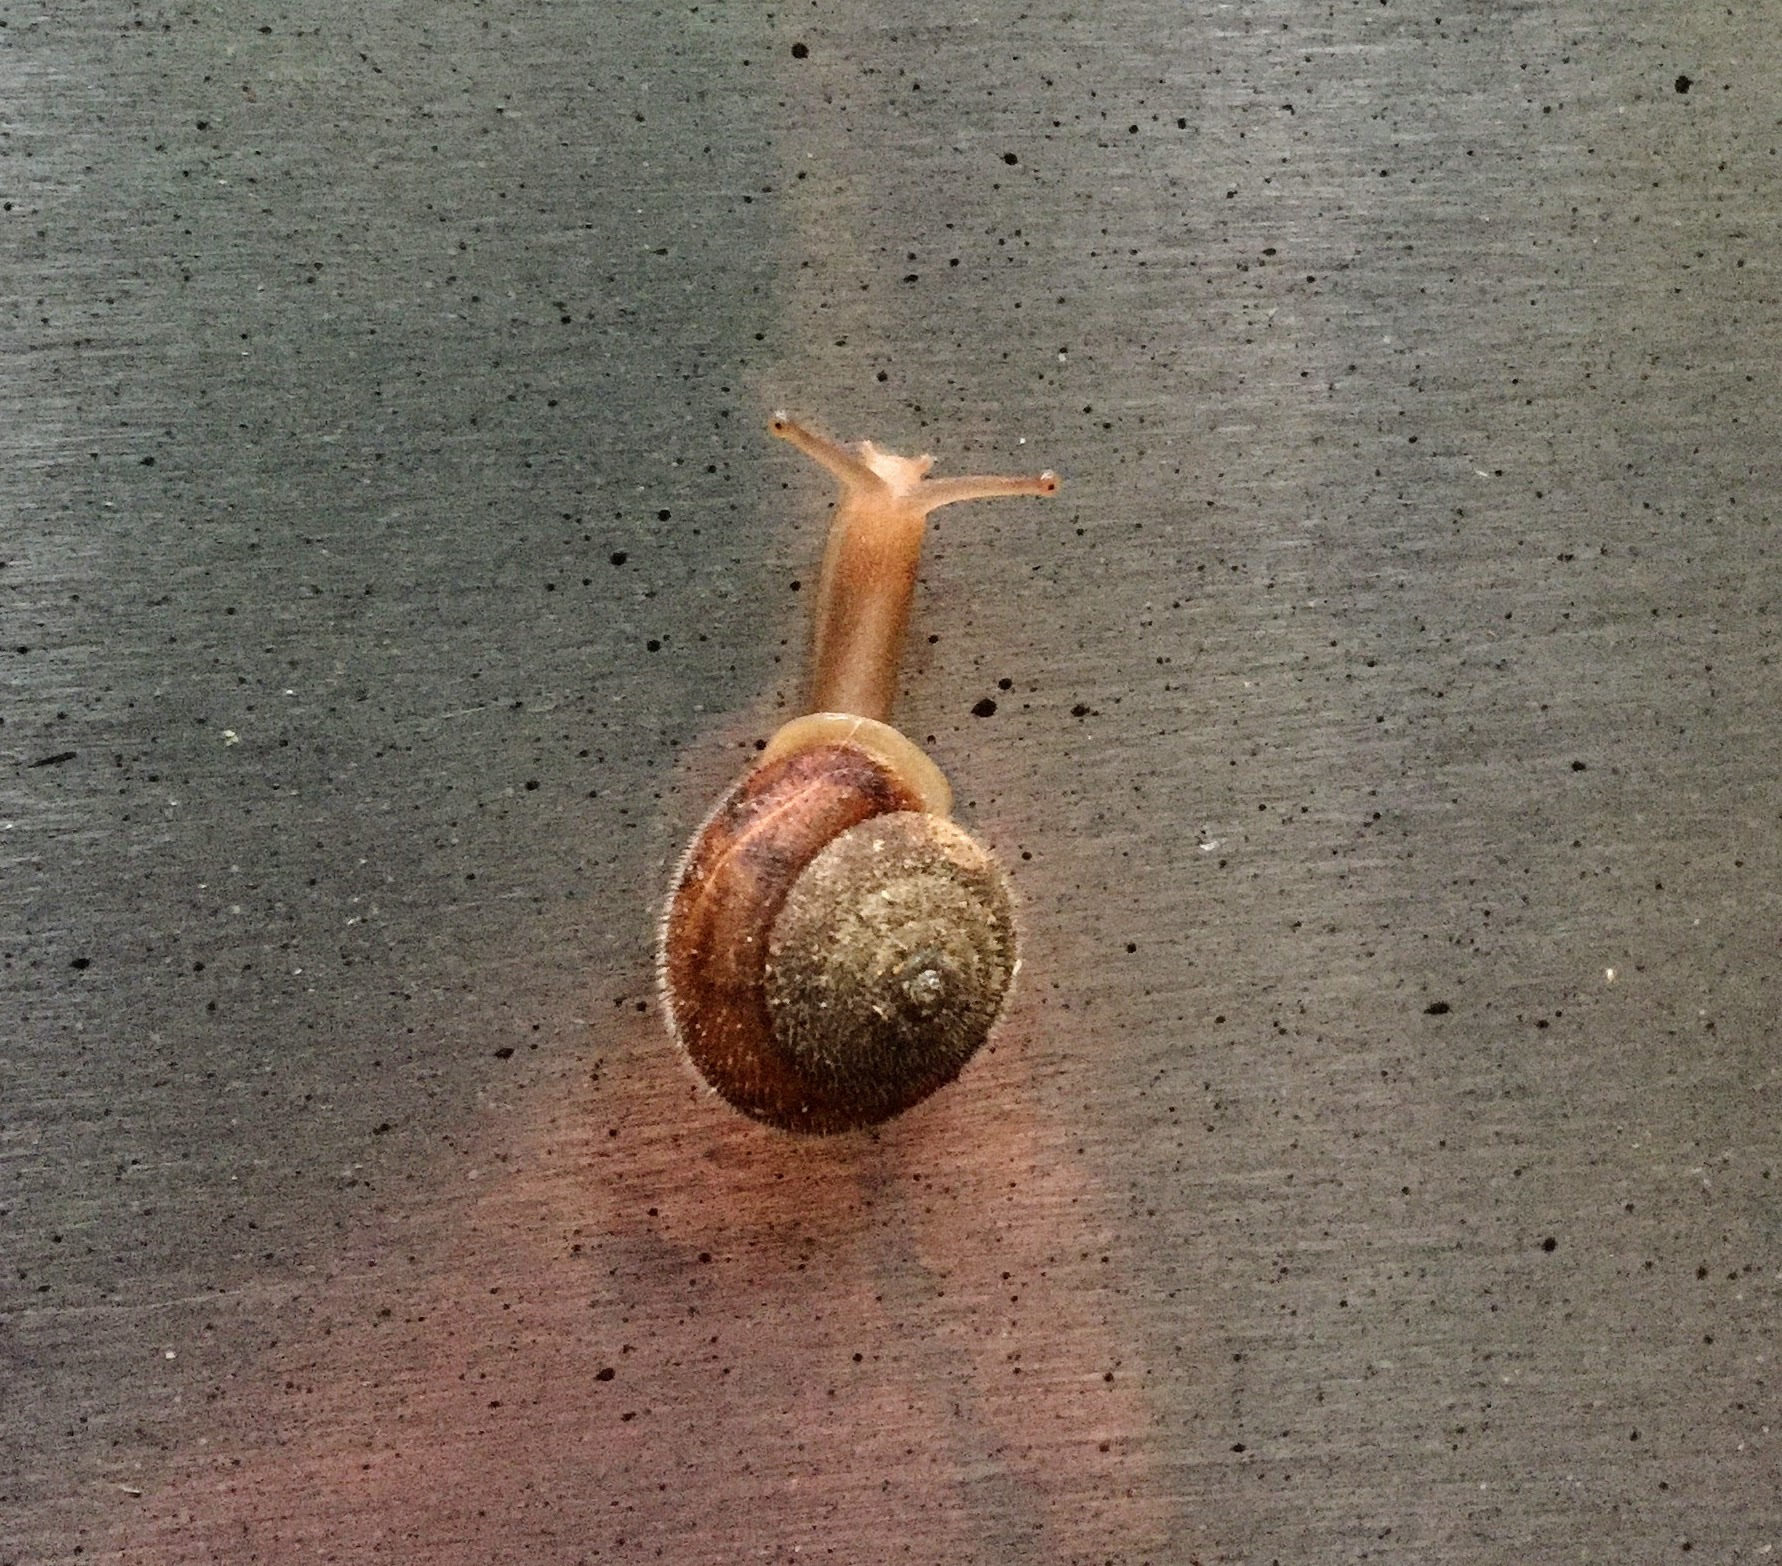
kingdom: Animalia
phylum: Mollusca
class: Gastropoda
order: Stylommatophora
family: Polygyridae
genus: Vespericola
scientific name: Vespericola columbianus
